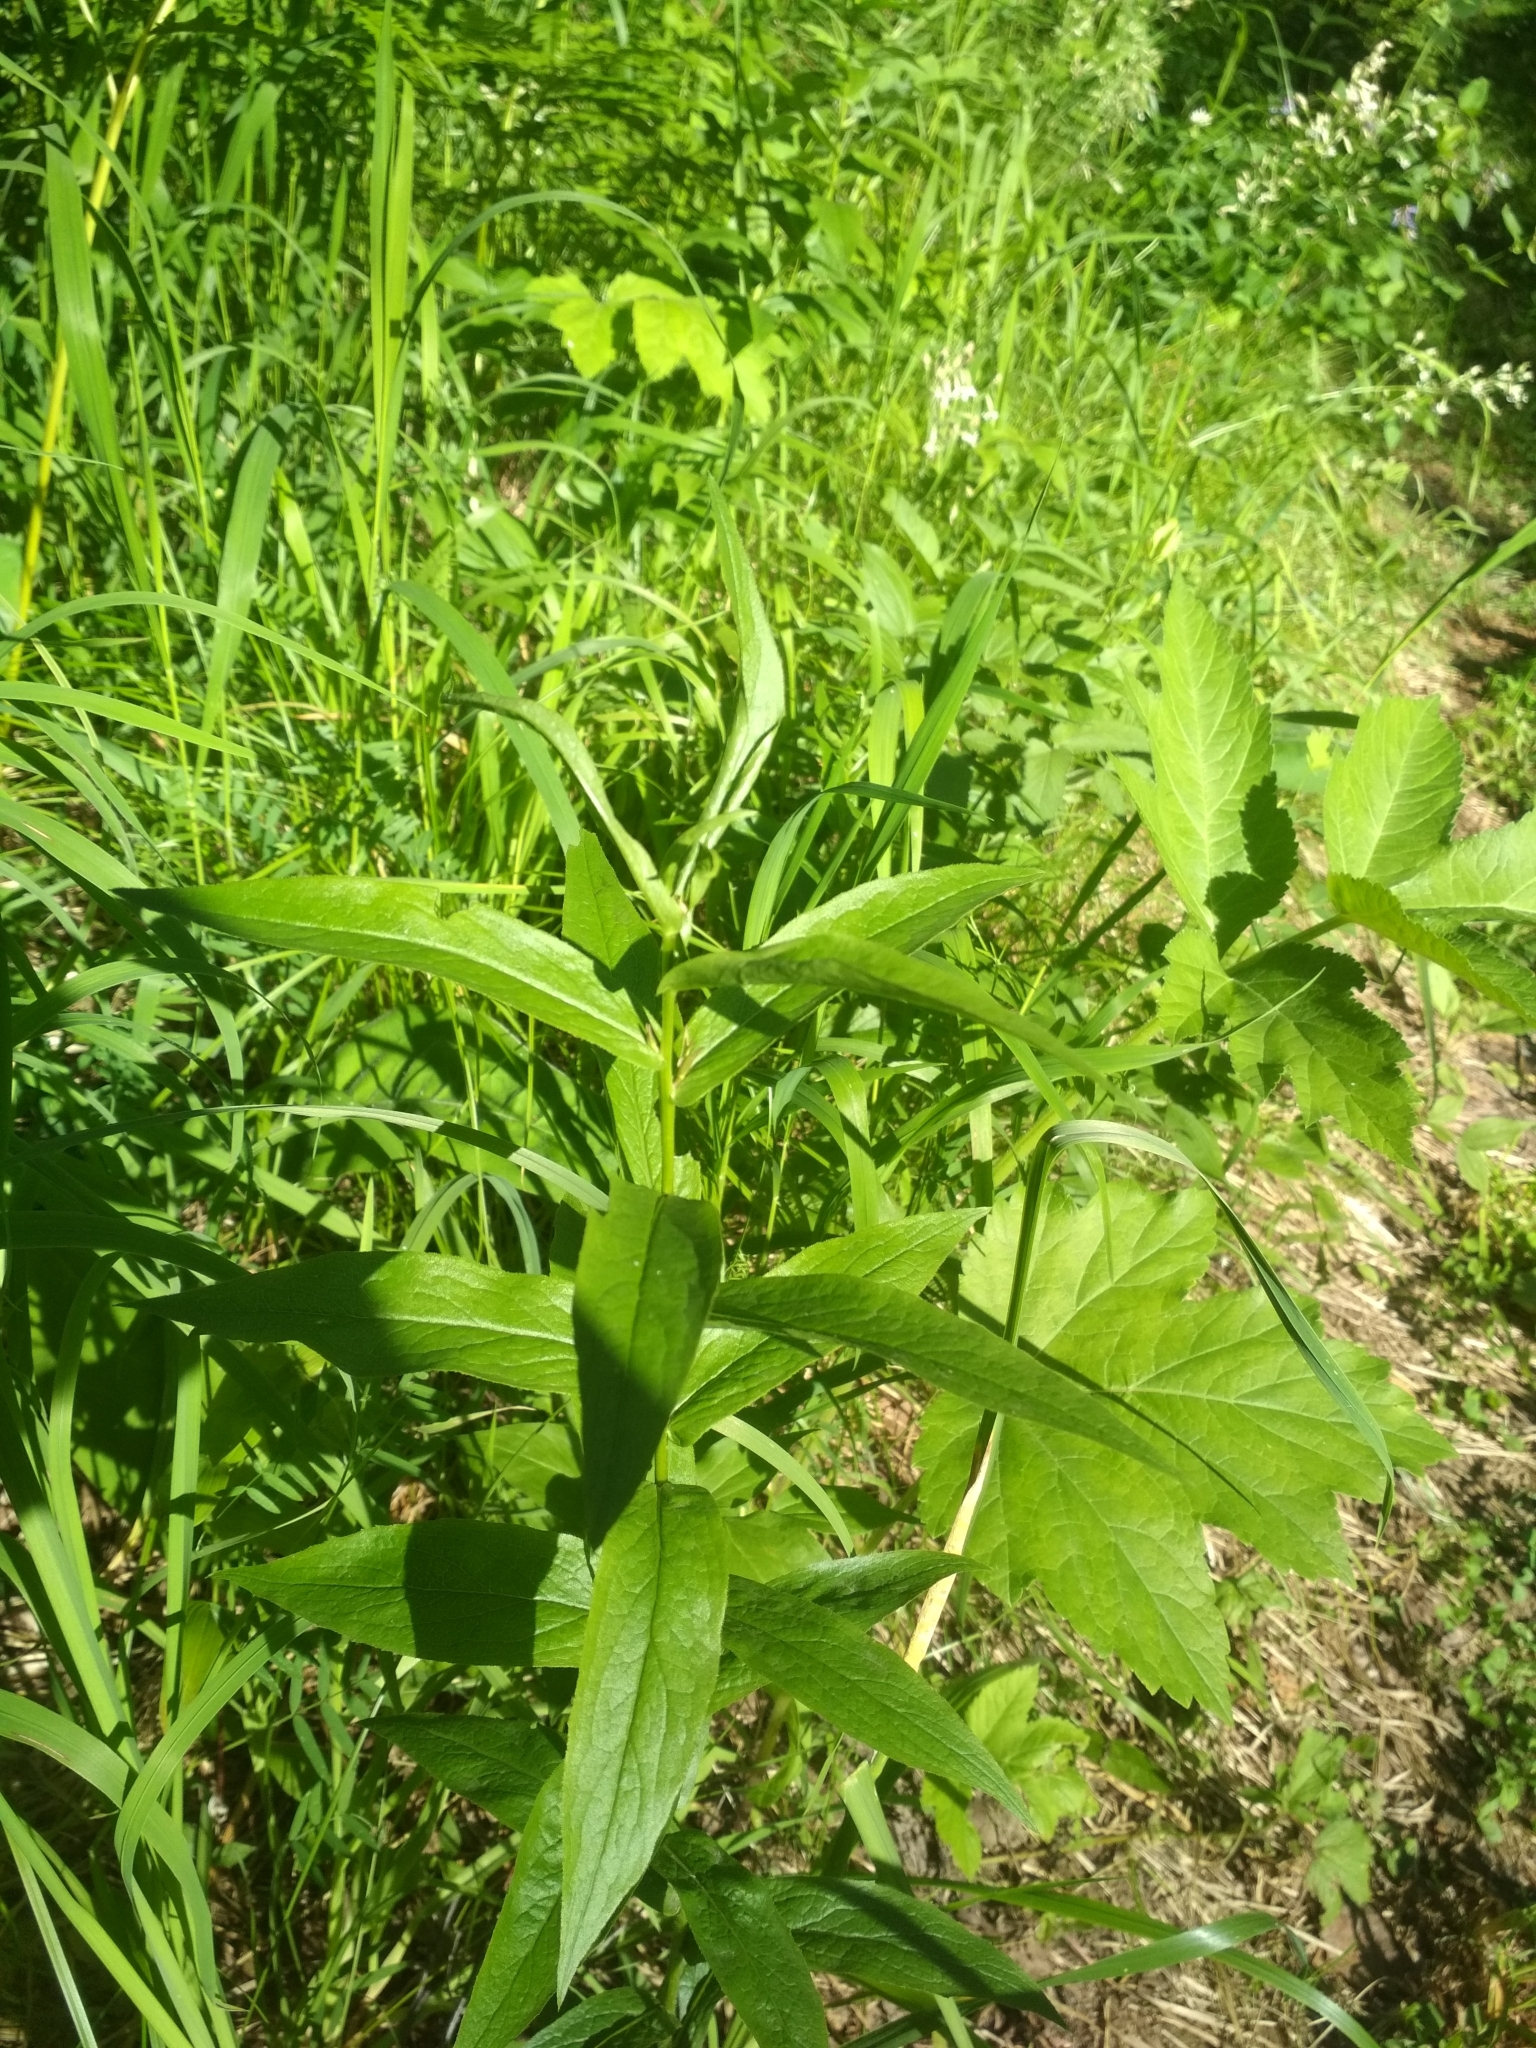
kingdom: Plantae
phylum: Tracheophyta
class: Magnoliopsida
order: Ericales
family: Primulaceae
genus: Lysimachia
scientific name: Lysimachia vulgaris
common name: Yellow loosestrife
